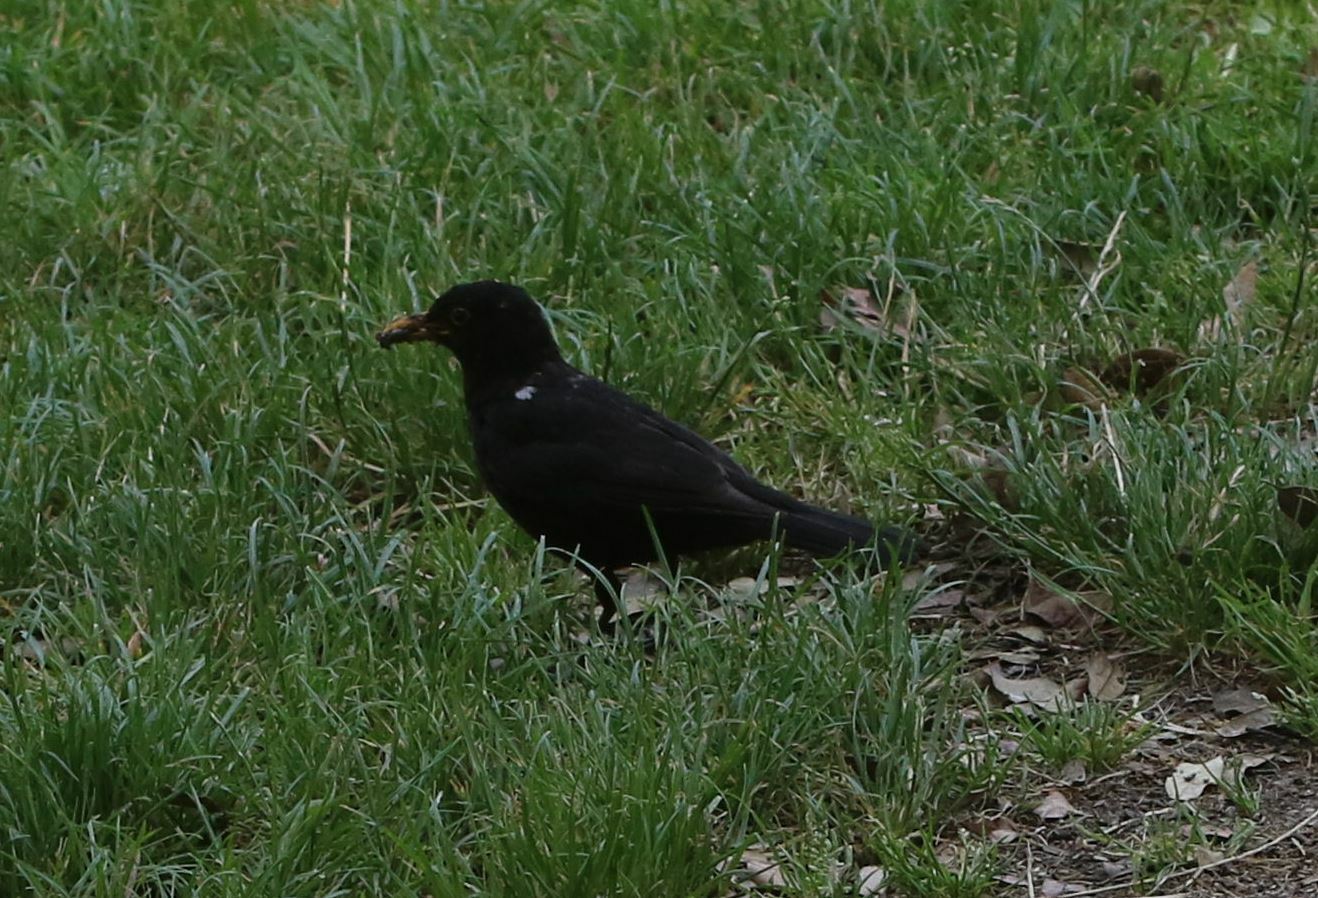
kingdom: Animalia
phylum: Chordata
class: Aves
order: Passeriformes
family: Turdidae
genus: Turdus
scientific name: Turdus merula
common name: Common blackbird
